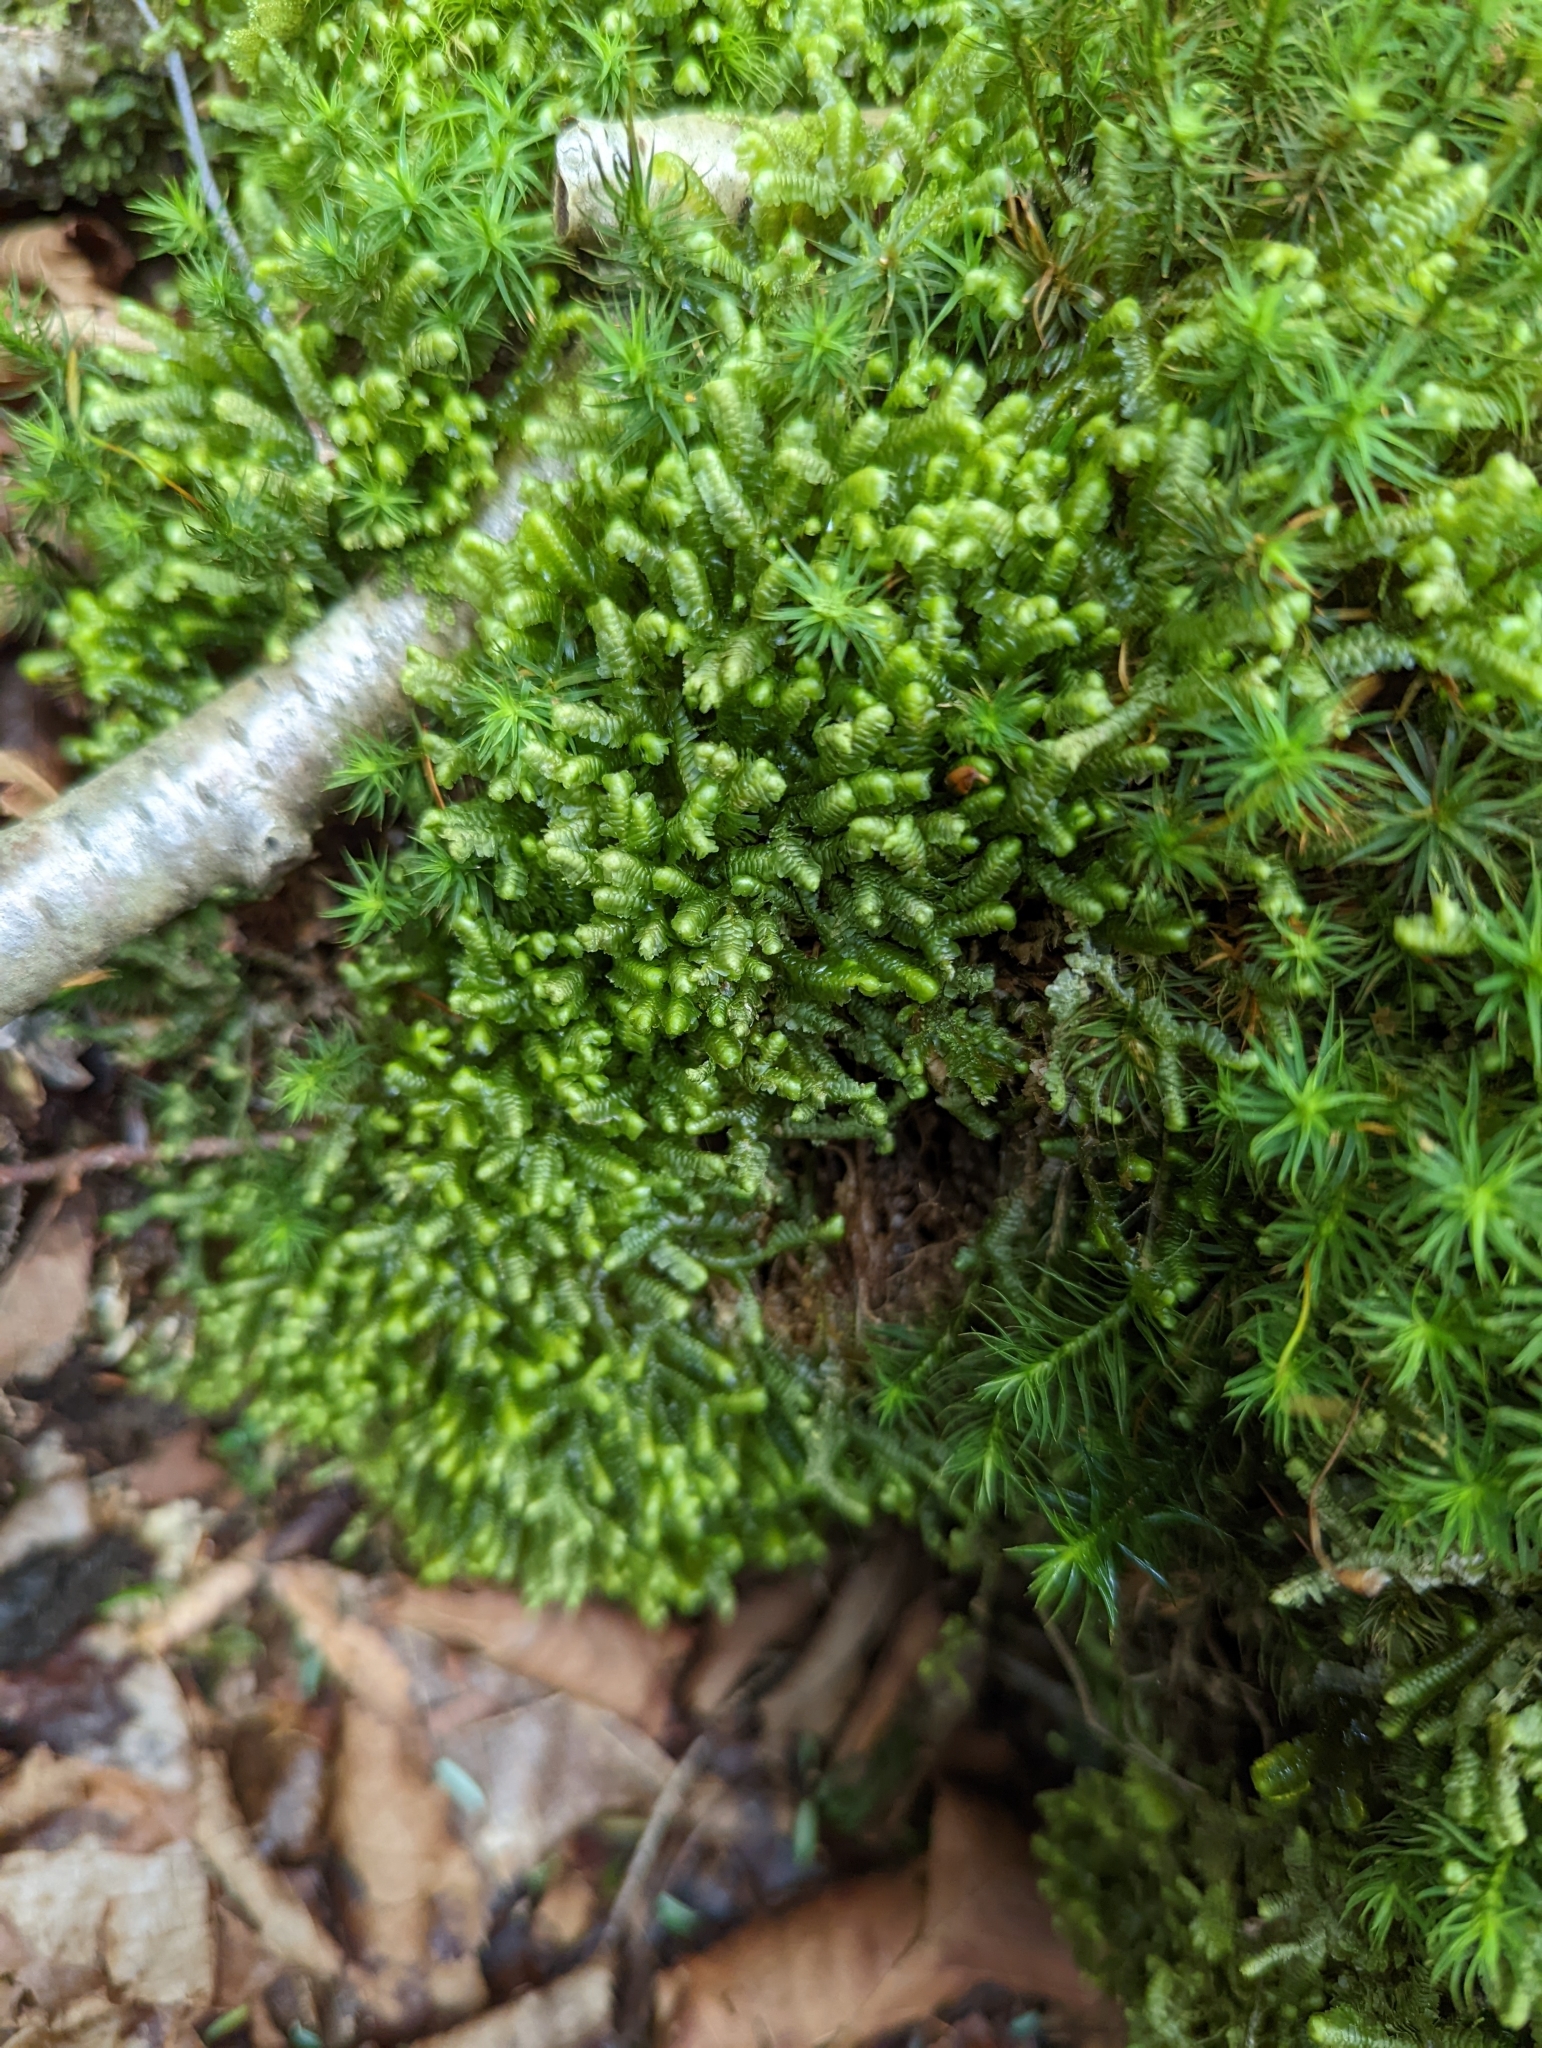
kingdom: Plantae
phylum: Marchantiophyta
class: Jungermanniopsida
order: Jungermanniales
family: Lepidoziaceae
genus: Bazzania
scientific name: Bazzania trilobata
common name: Three-lobed whipwort
